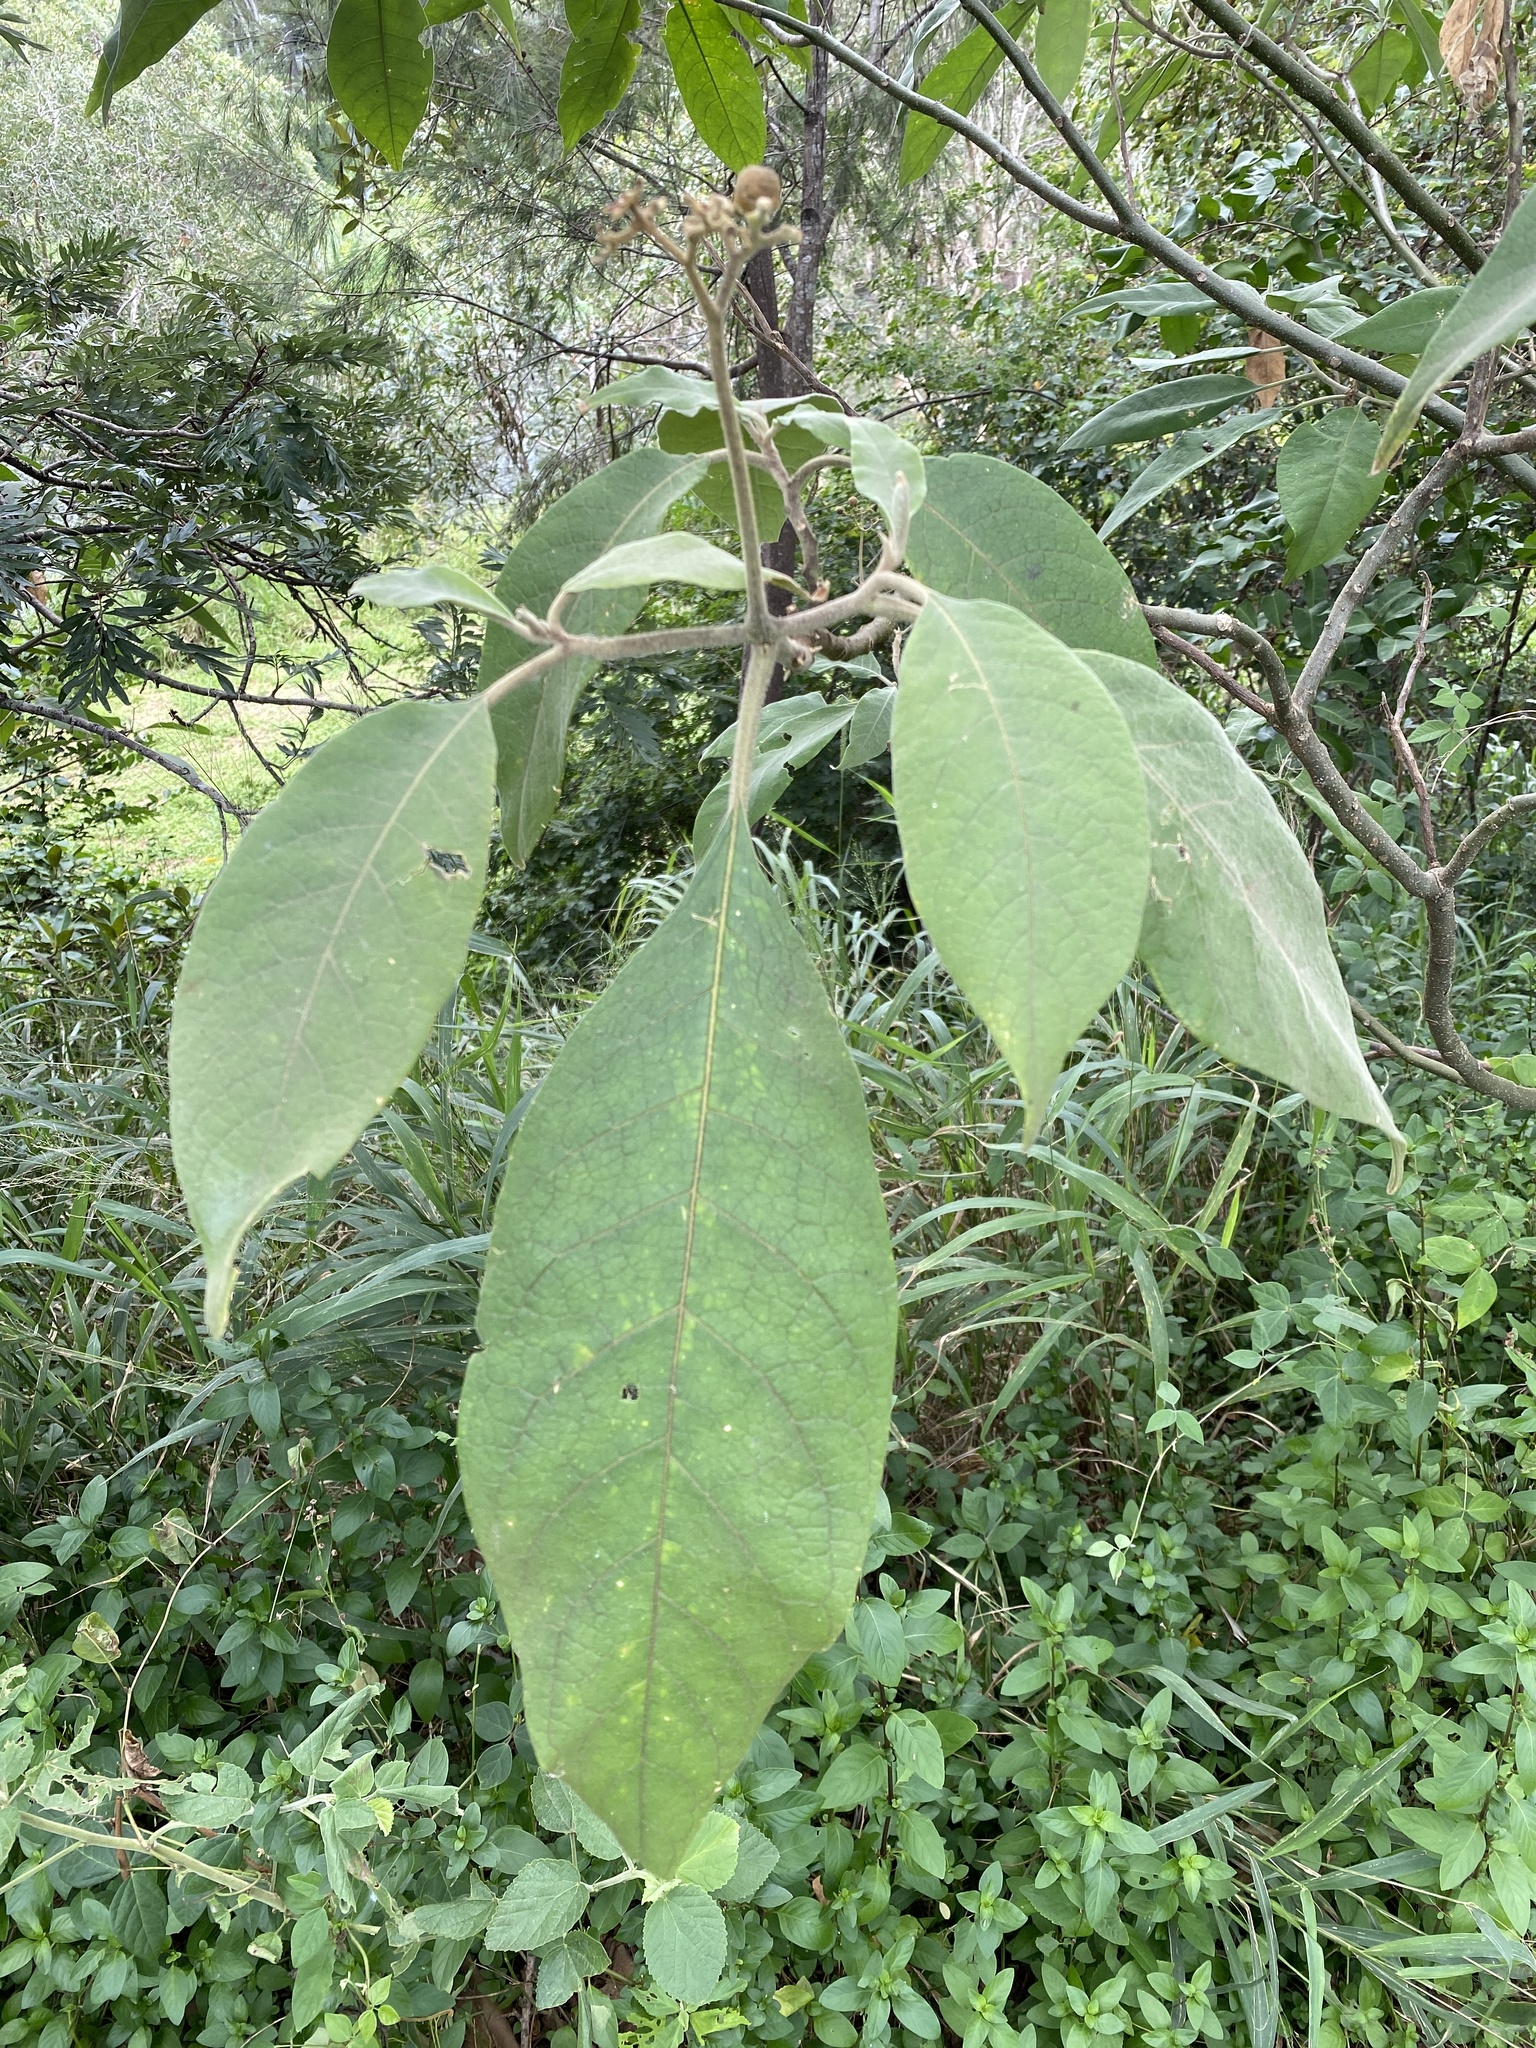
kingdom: Plantae
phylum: Tracheophyta
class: Magnoliopsida
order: Solanales
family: Solanaceae
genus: Solanum
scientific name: Solanum mauritianum
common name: Earleaf nightshade
